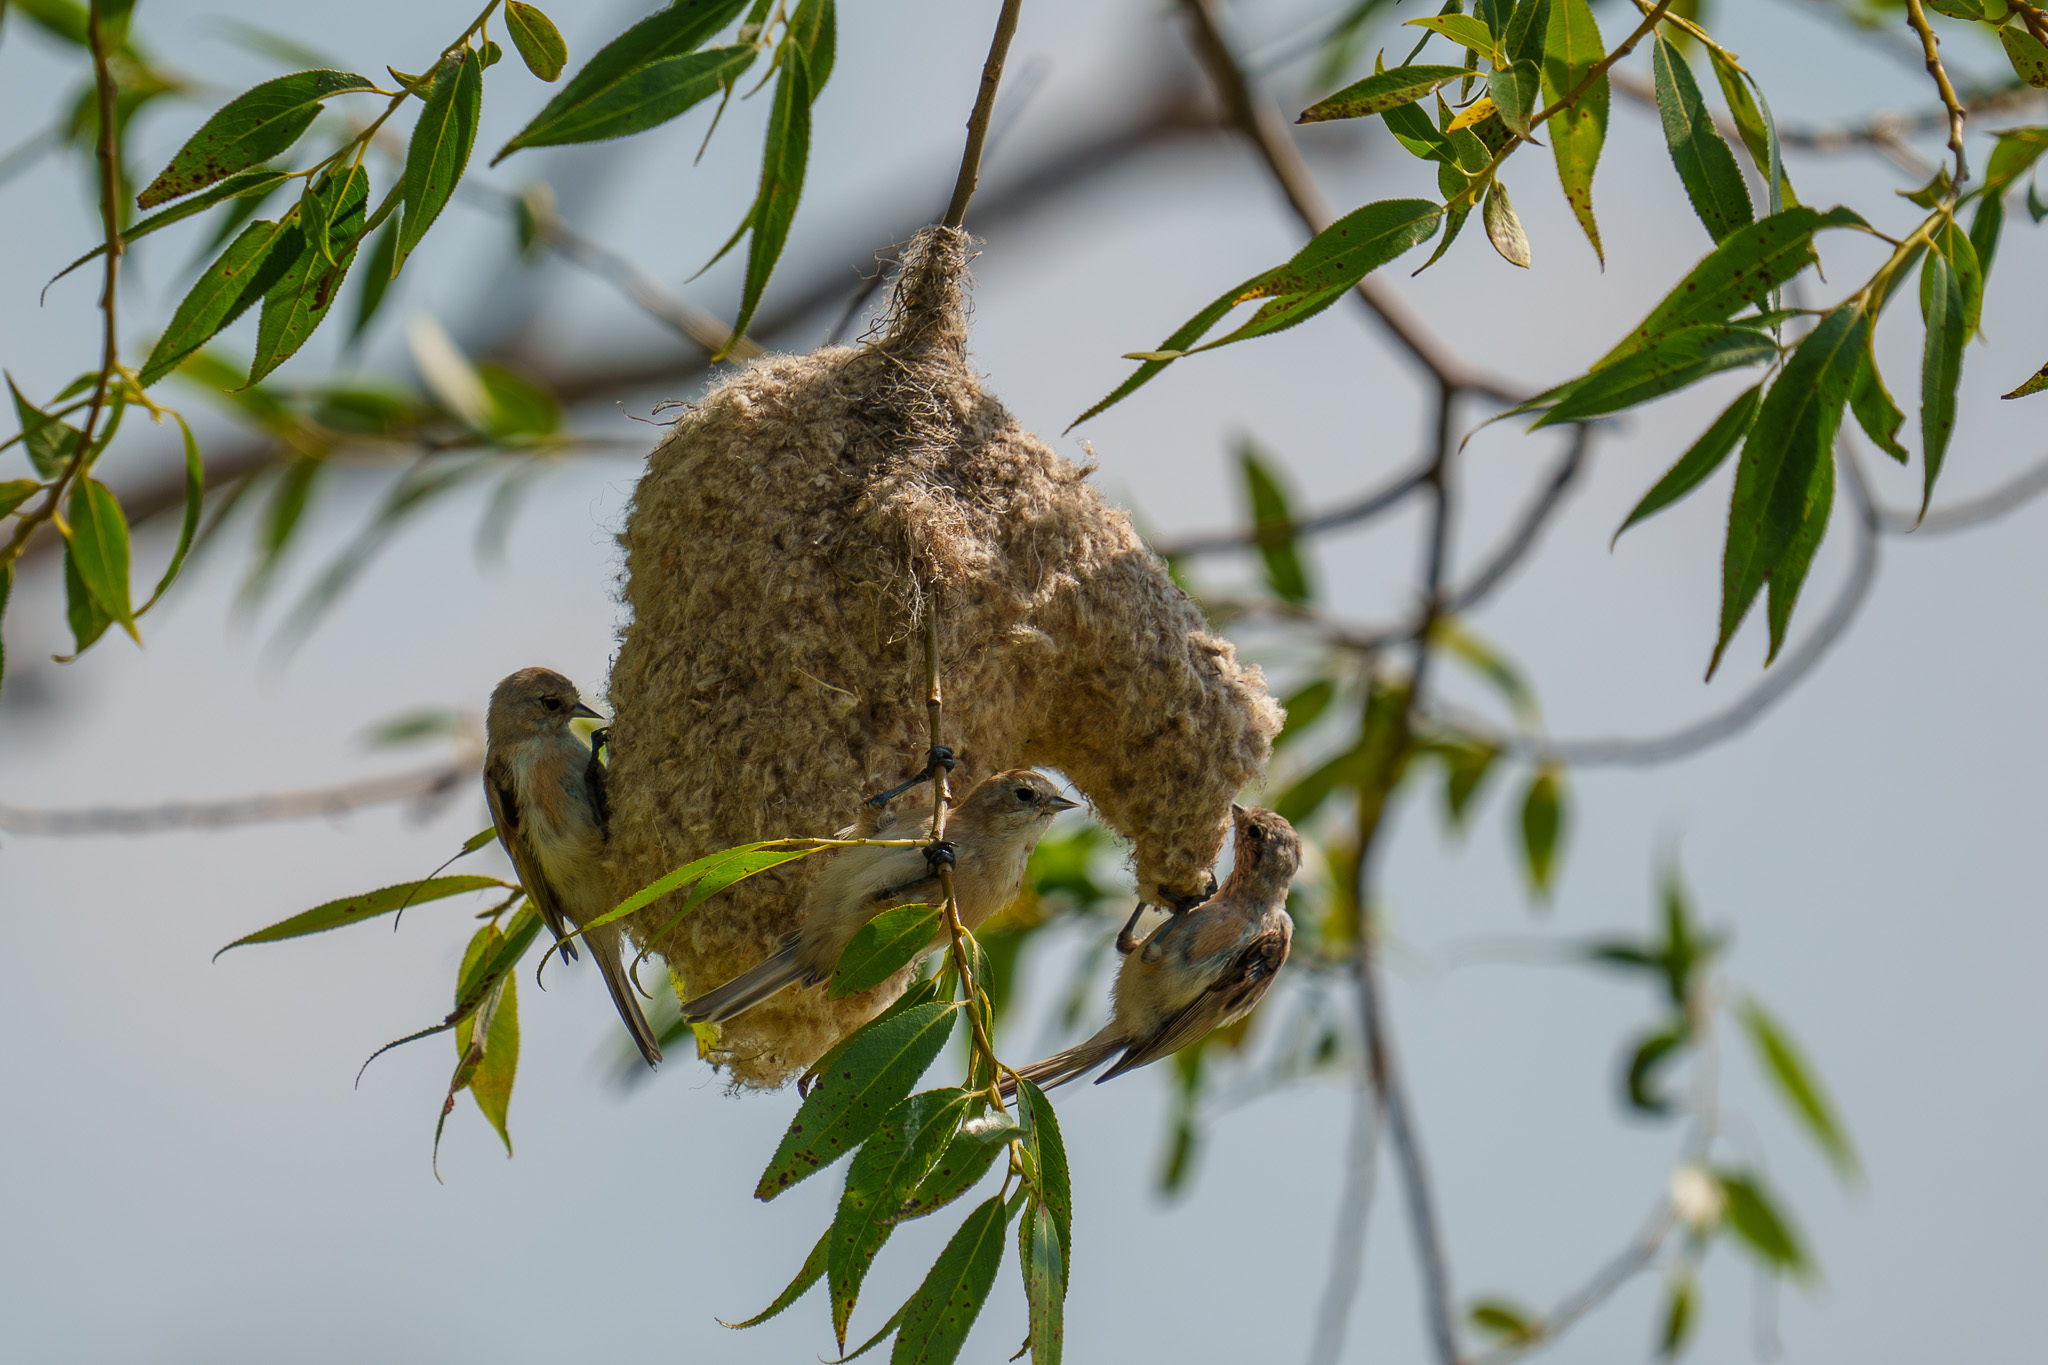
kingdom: Animalia
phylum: Chordata
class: Aves
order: Passeriformes
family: Remizidae
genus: Remiz
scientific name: Remiz pendulinus
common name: Eurasian penduline tit
